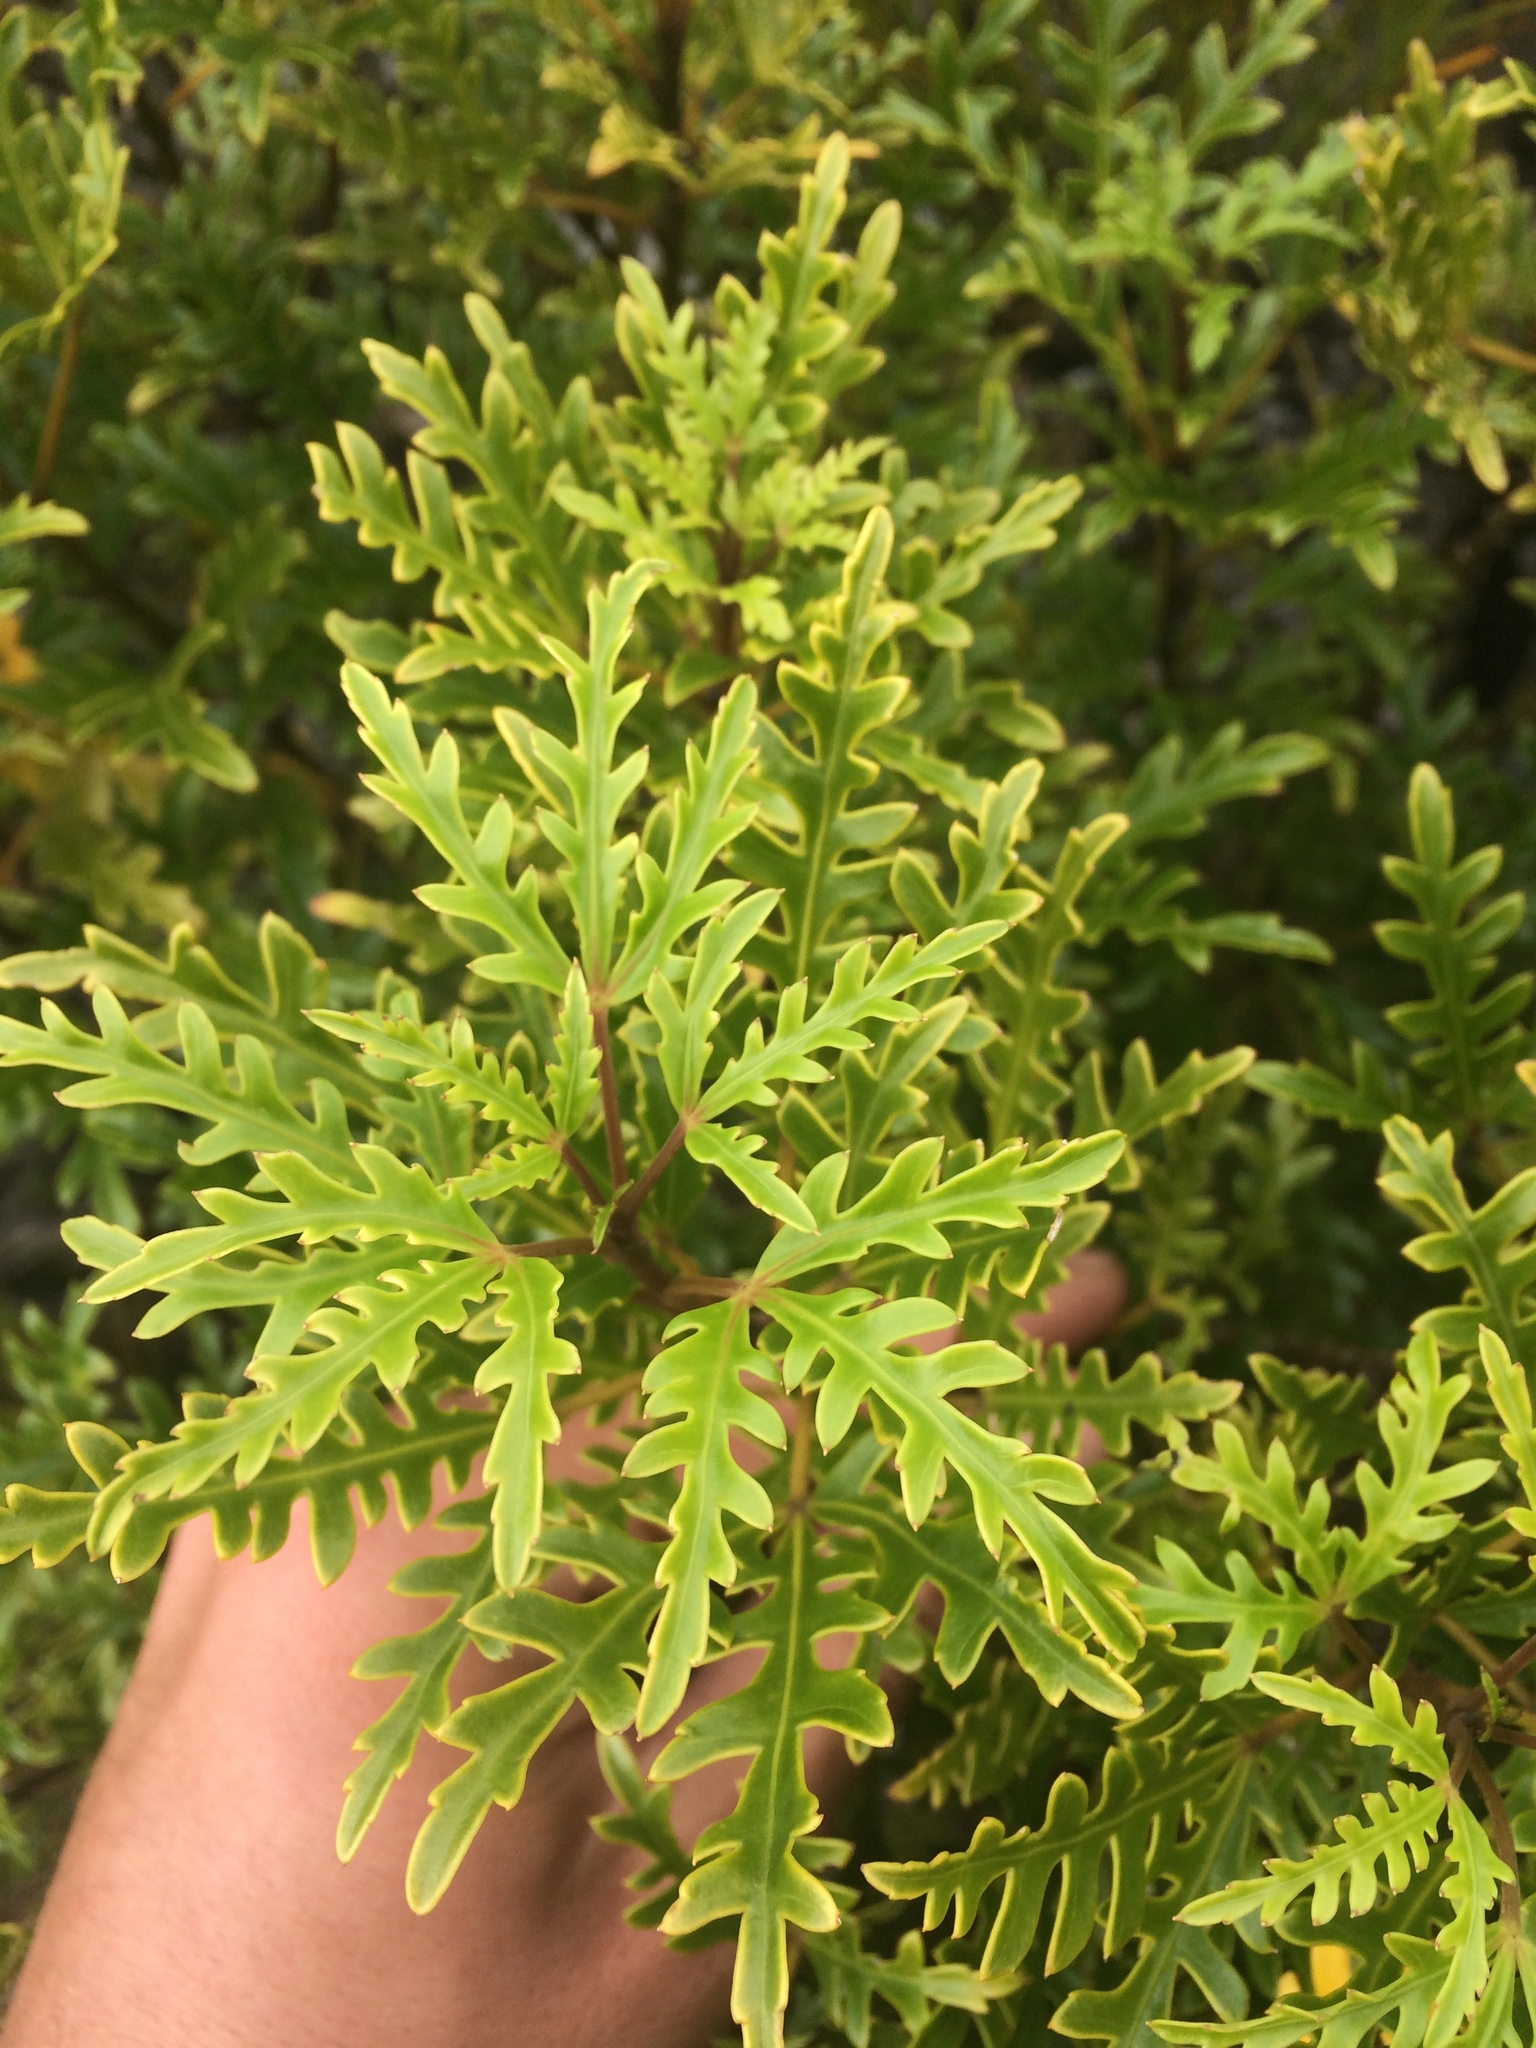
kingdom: Plantae
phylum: Tracheophyta
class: Magnoliopsida
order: Apiales
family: Araliaceae
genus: Raukaua
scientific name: Raukaua simplex
